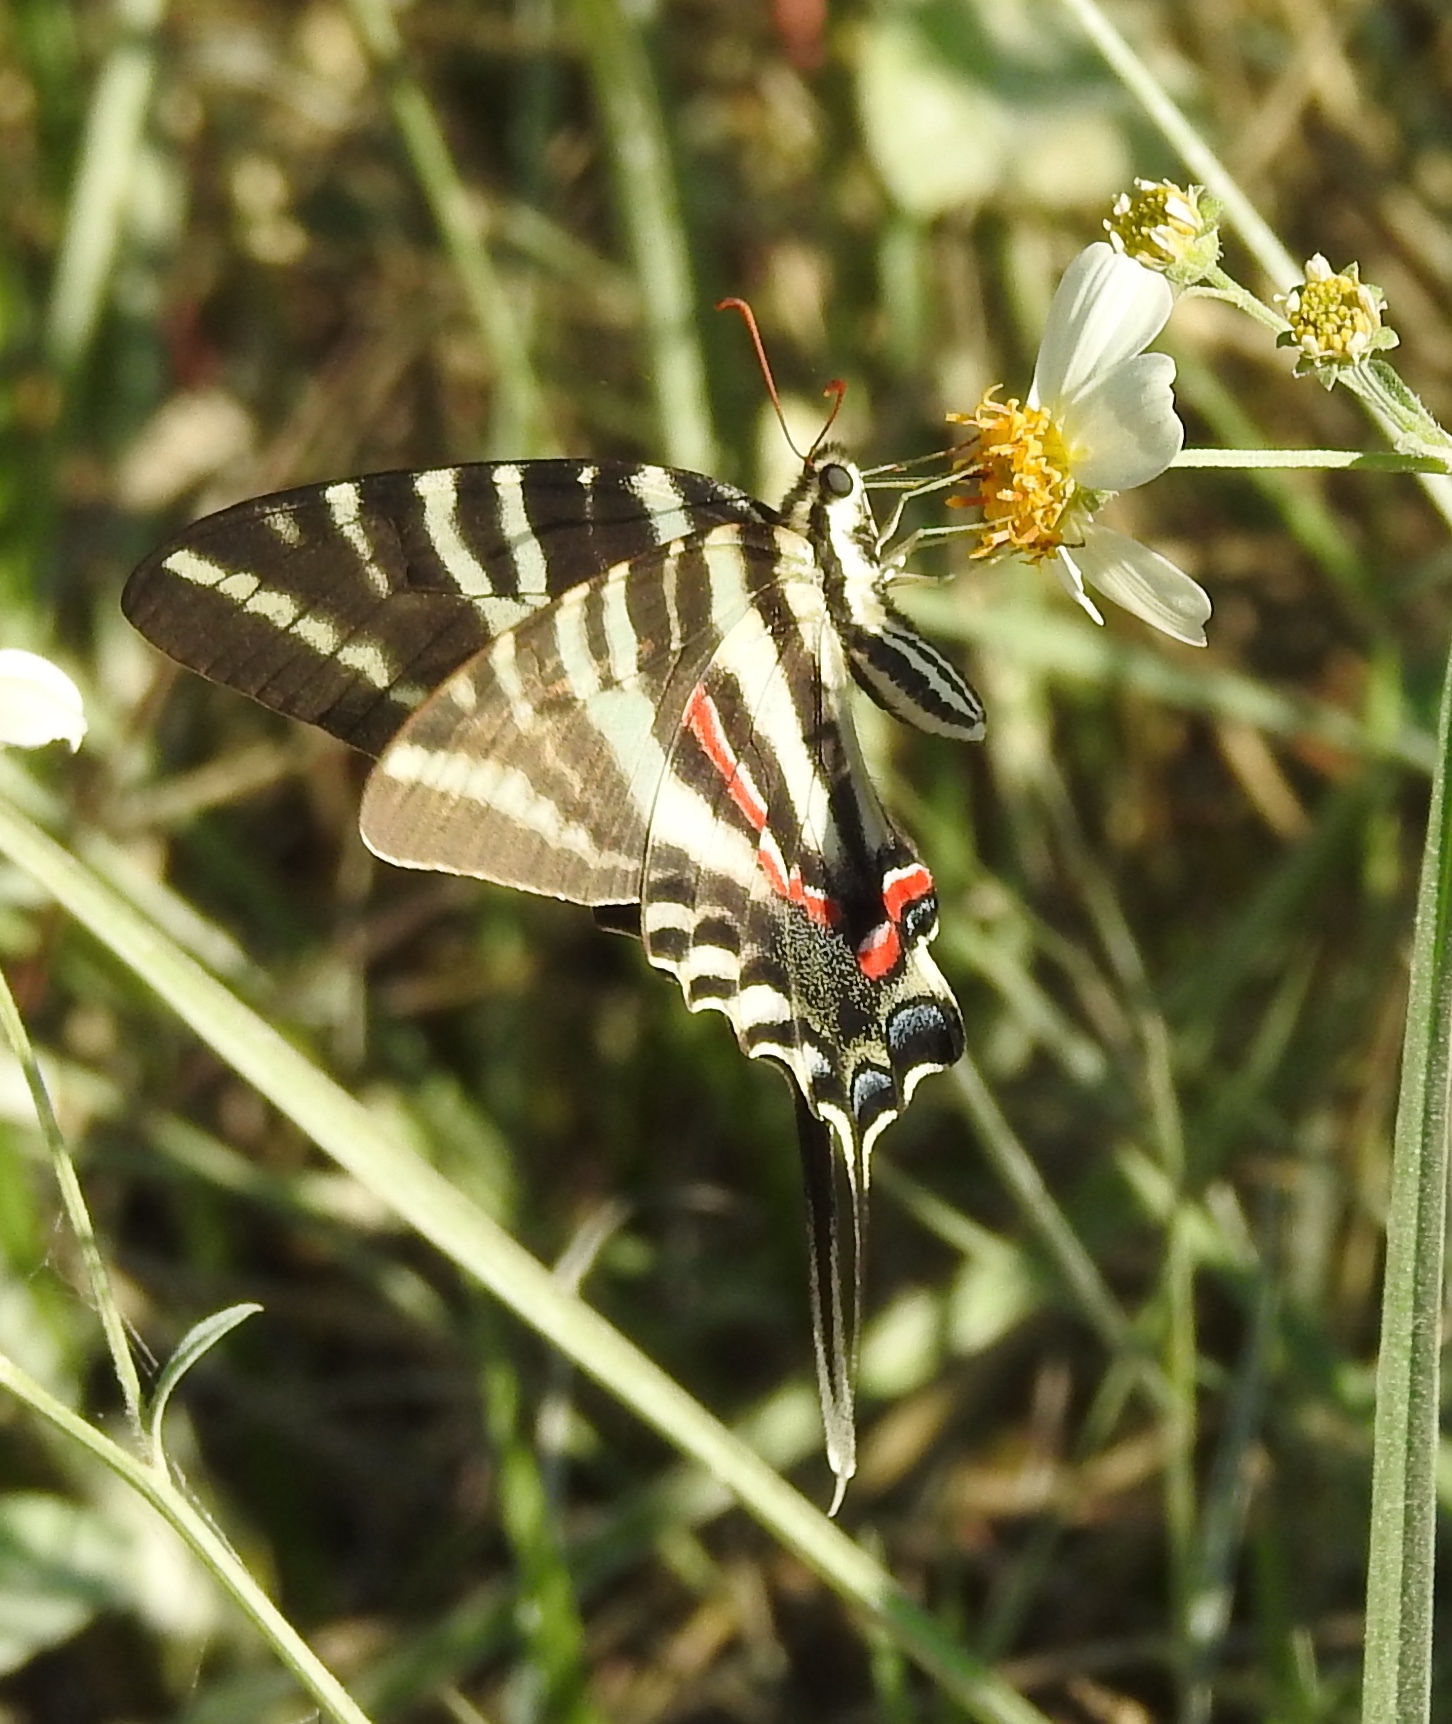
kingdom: Animalia
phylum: Arthropoda
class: Insecta
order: Lepidoptera
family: Papilionidae
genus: Protographium
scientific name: Protographium marcellus
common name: Zebra swallowtail
